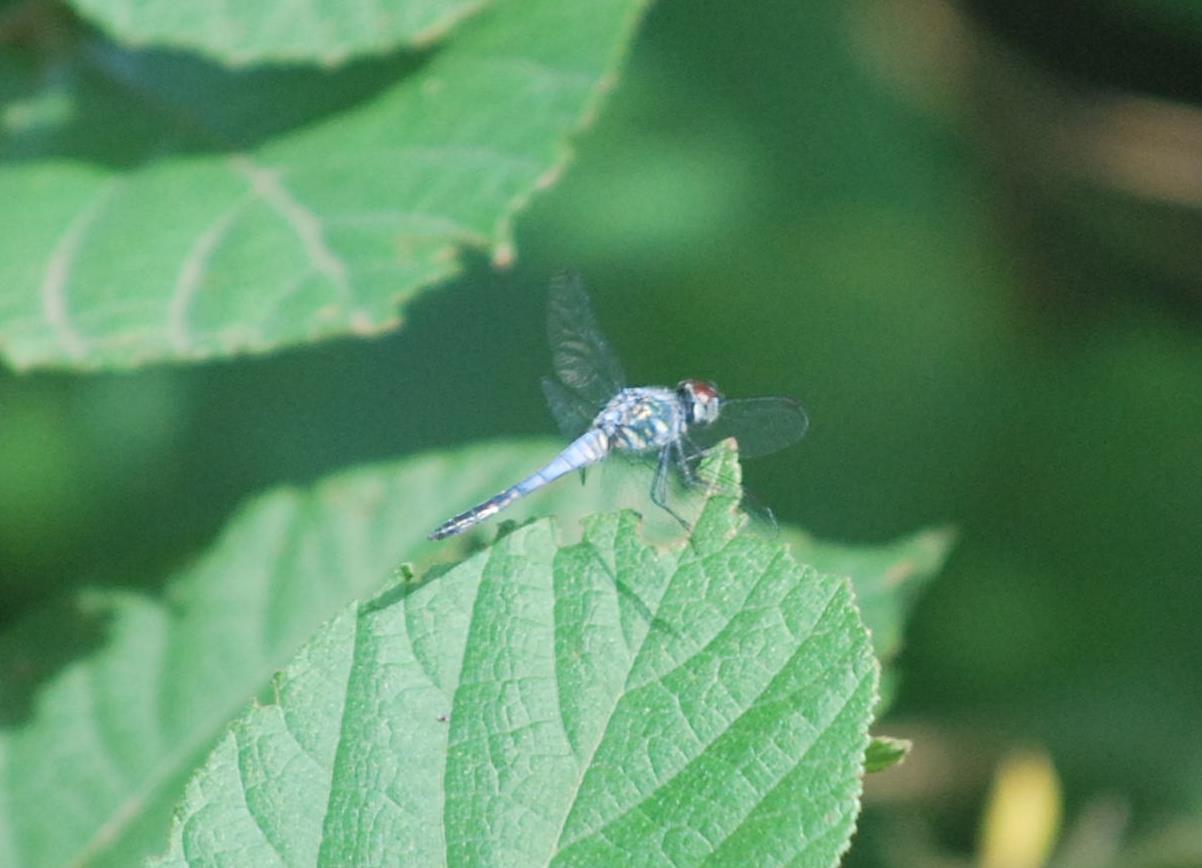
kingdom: Animalia
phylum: Arthropoda
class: Insecta
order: Odonata
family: Libellulidae
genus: Brachydiplax
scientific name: Brachydiplax sobrina
